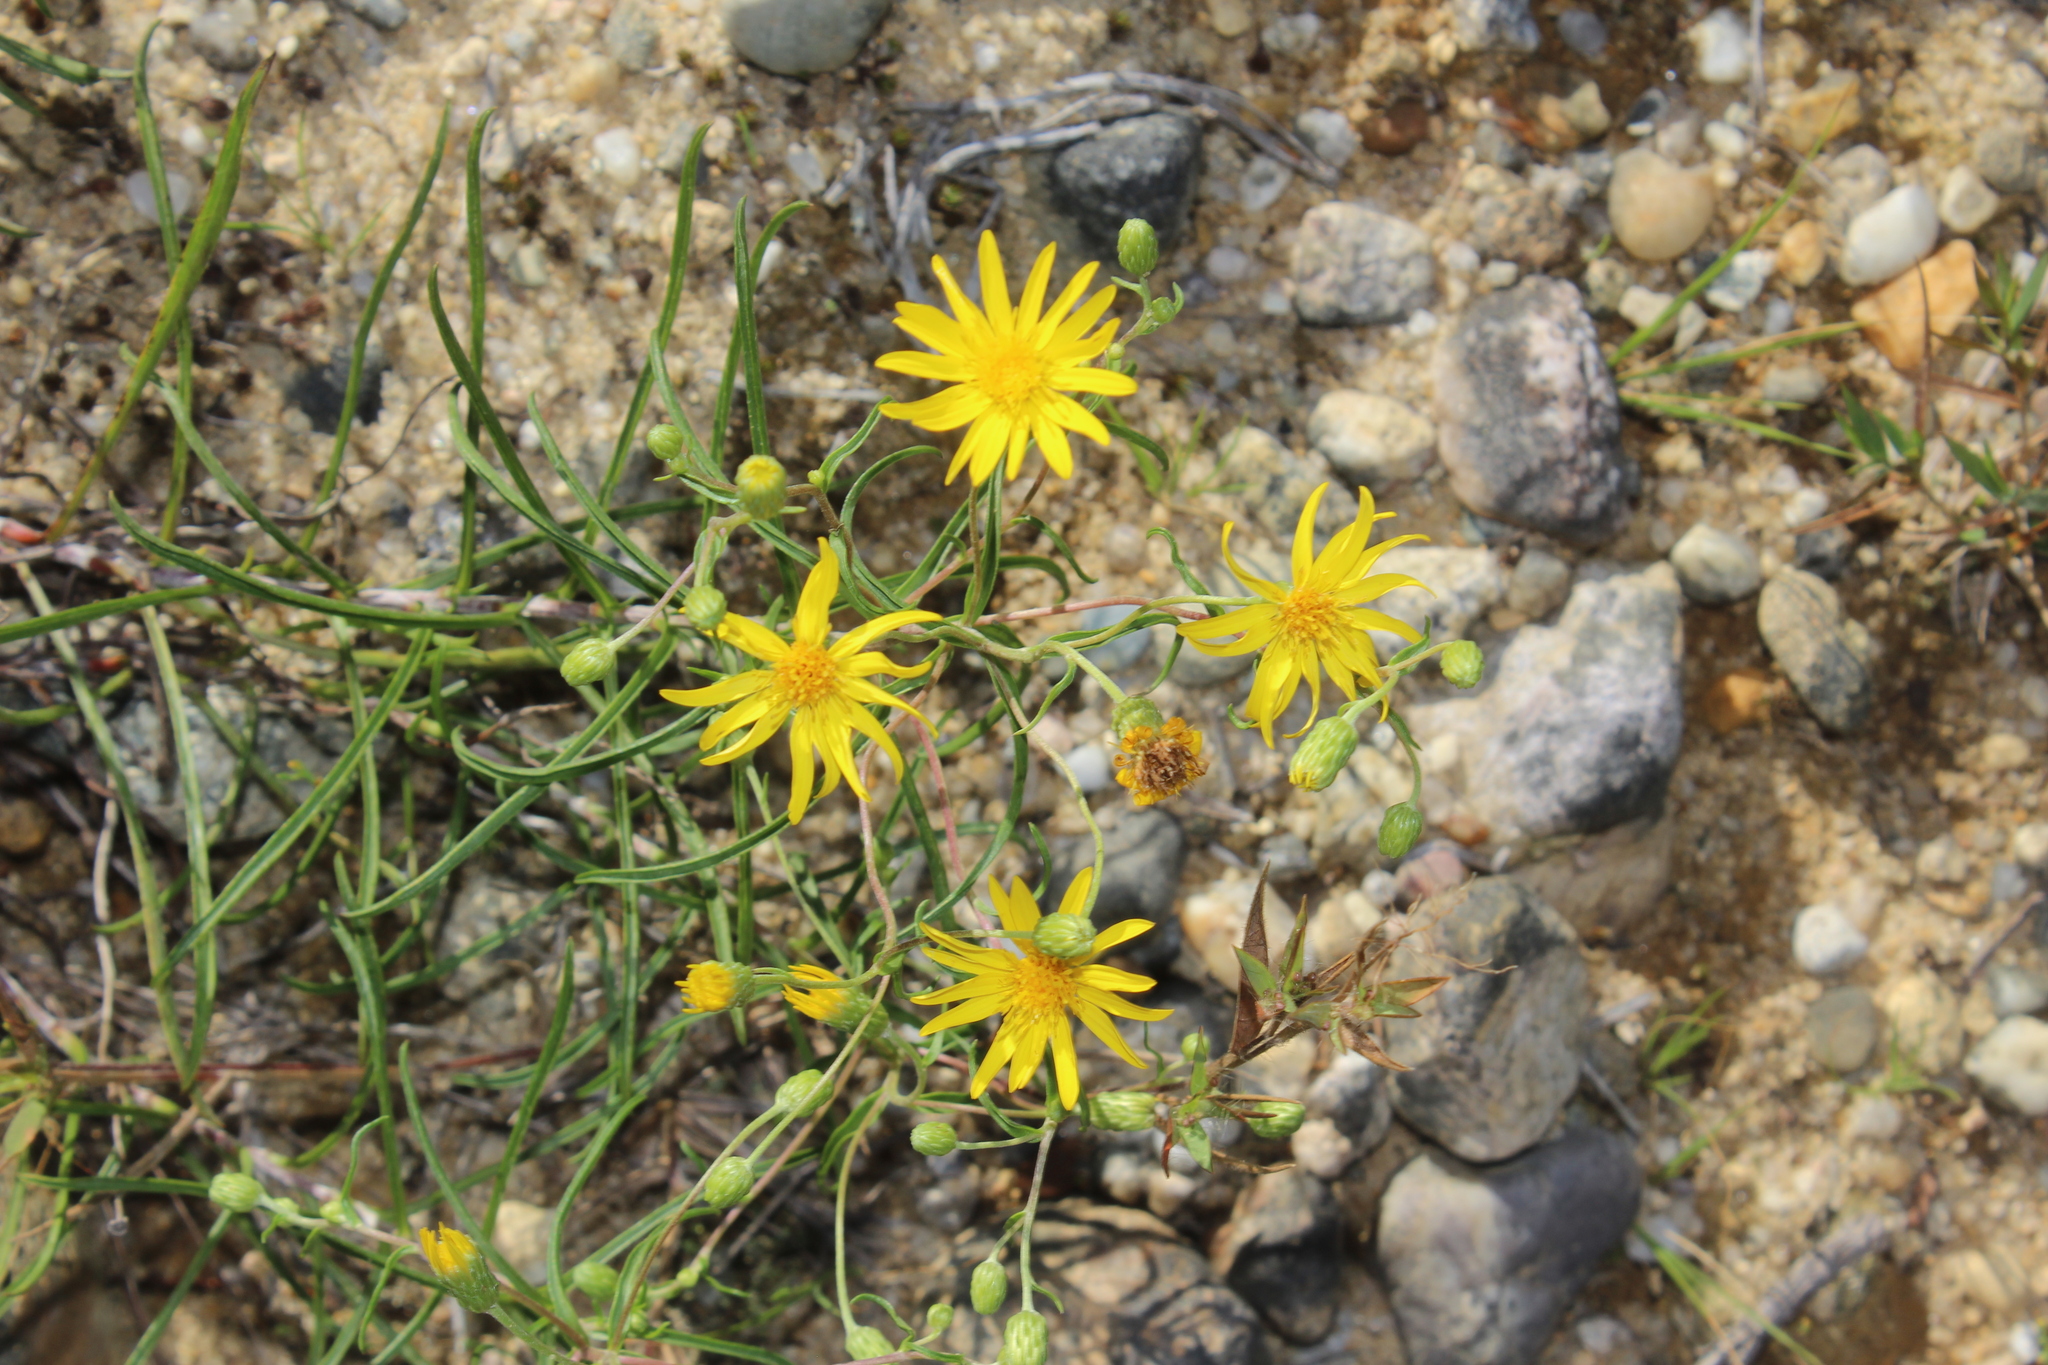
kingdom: Plantae
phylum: Tracheophyta
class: Magnoliopsida
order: Asterales
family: Asteraceae
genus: Pityopsis
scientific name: Pityopsis falcata
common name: Sickle-leaved goldenaster
